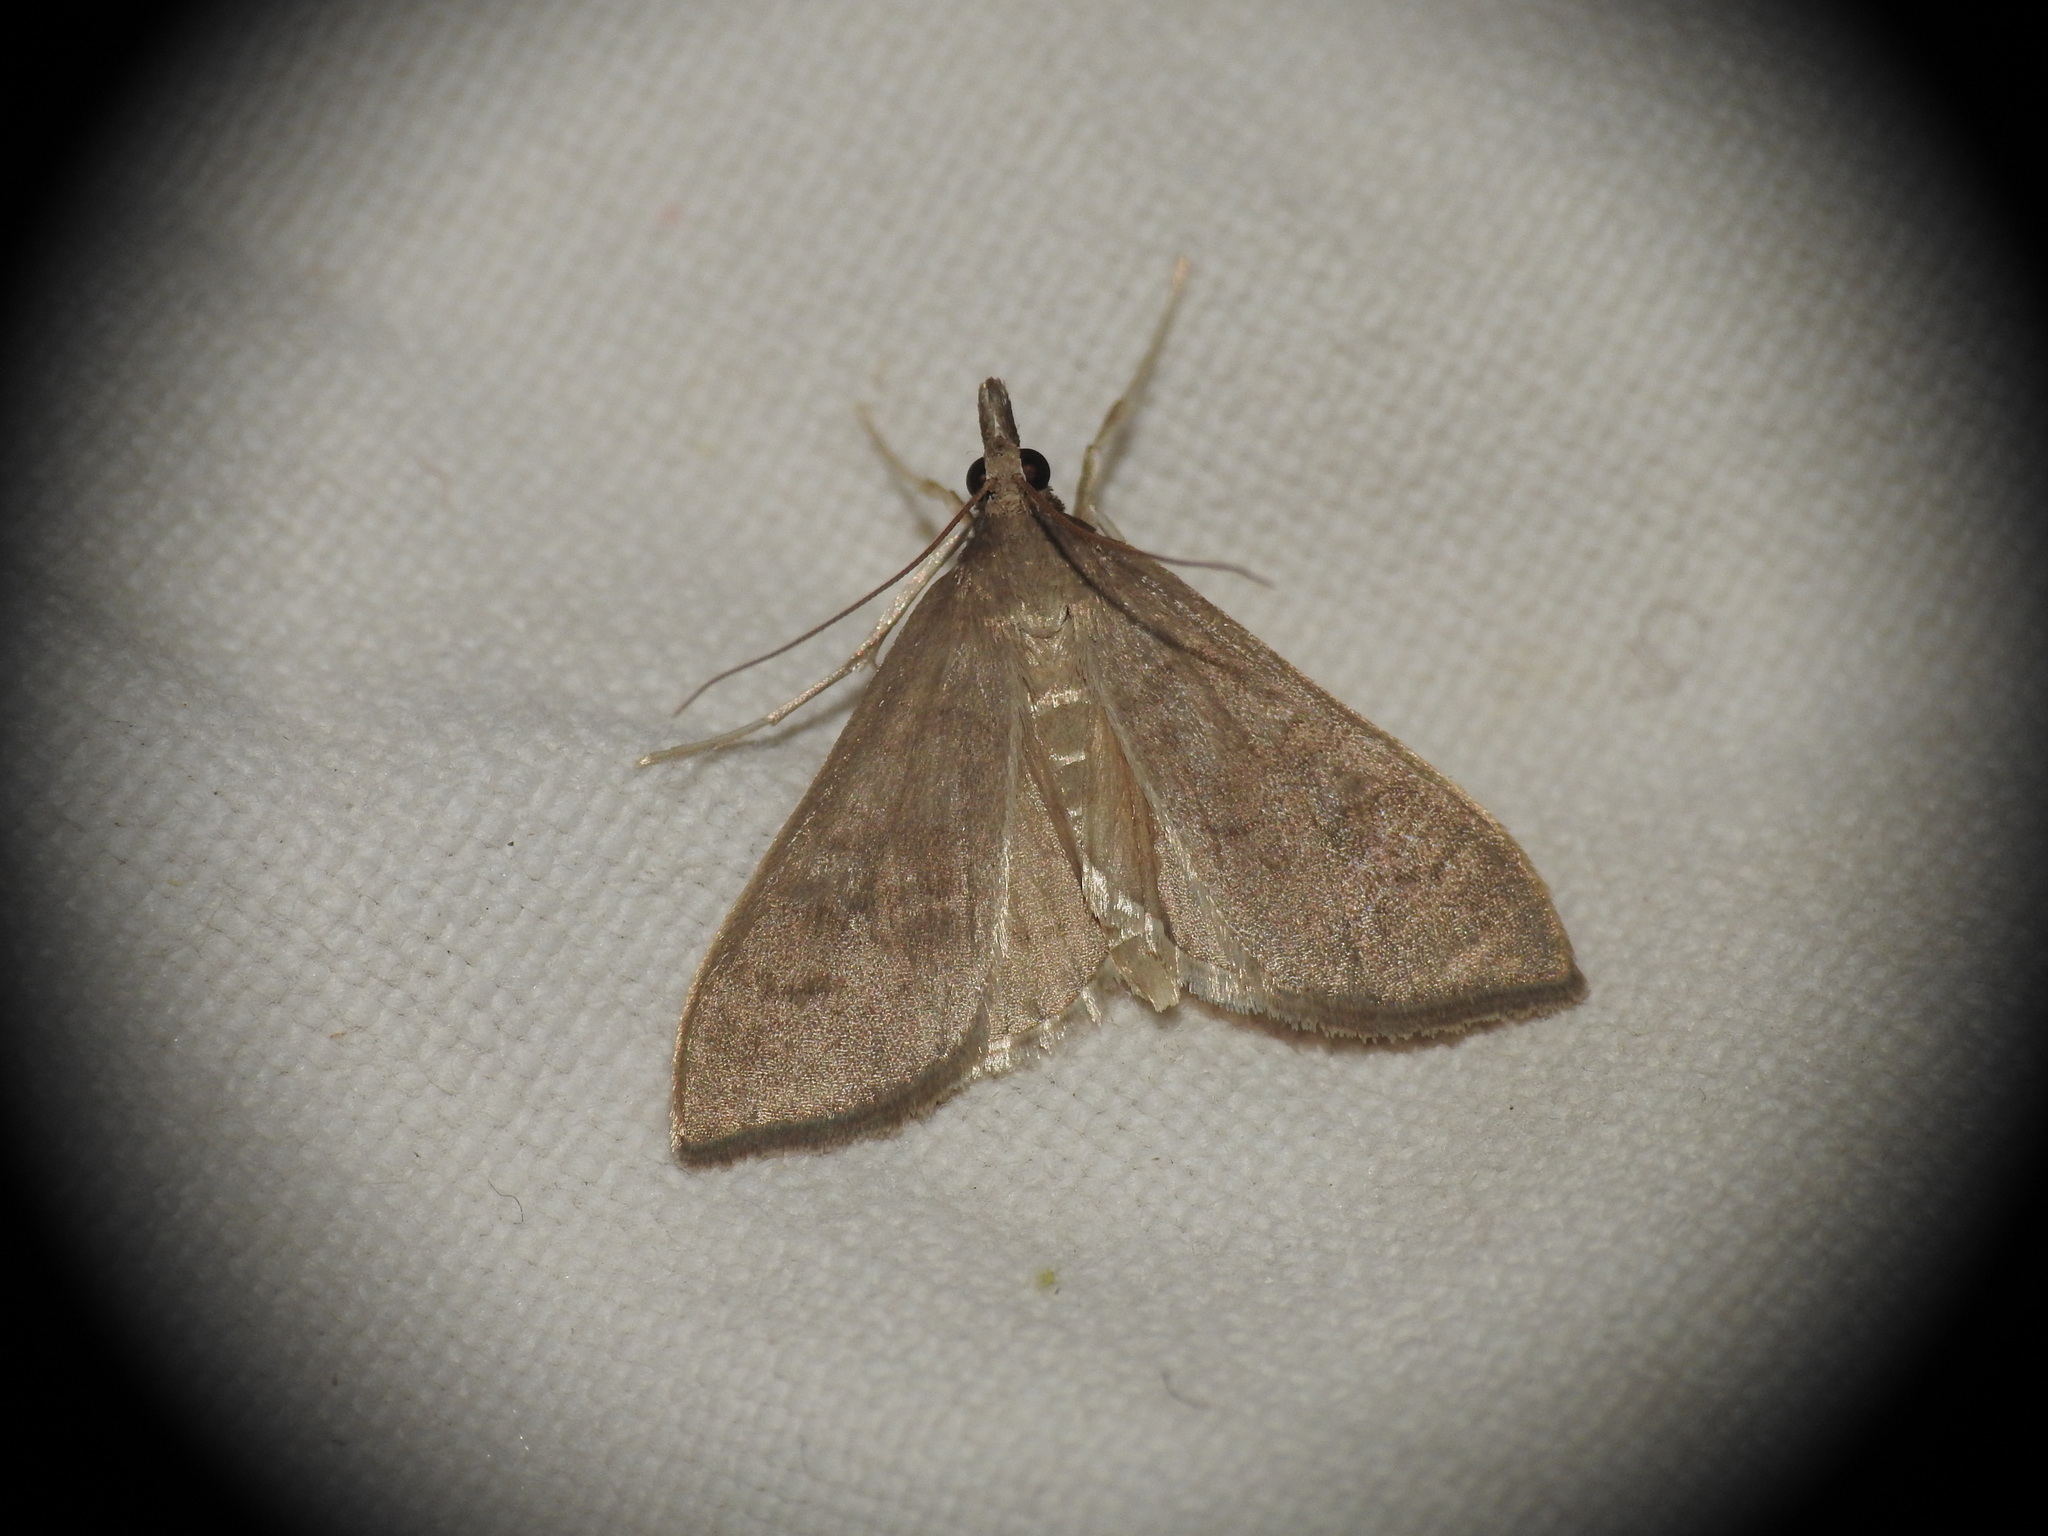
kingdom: Animalia
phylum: Arthropoda
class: Insecta
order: Lepidoptera
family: Crambidae
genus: Mecyna
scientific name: Mecyna asinalis
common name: Coastal pearl
